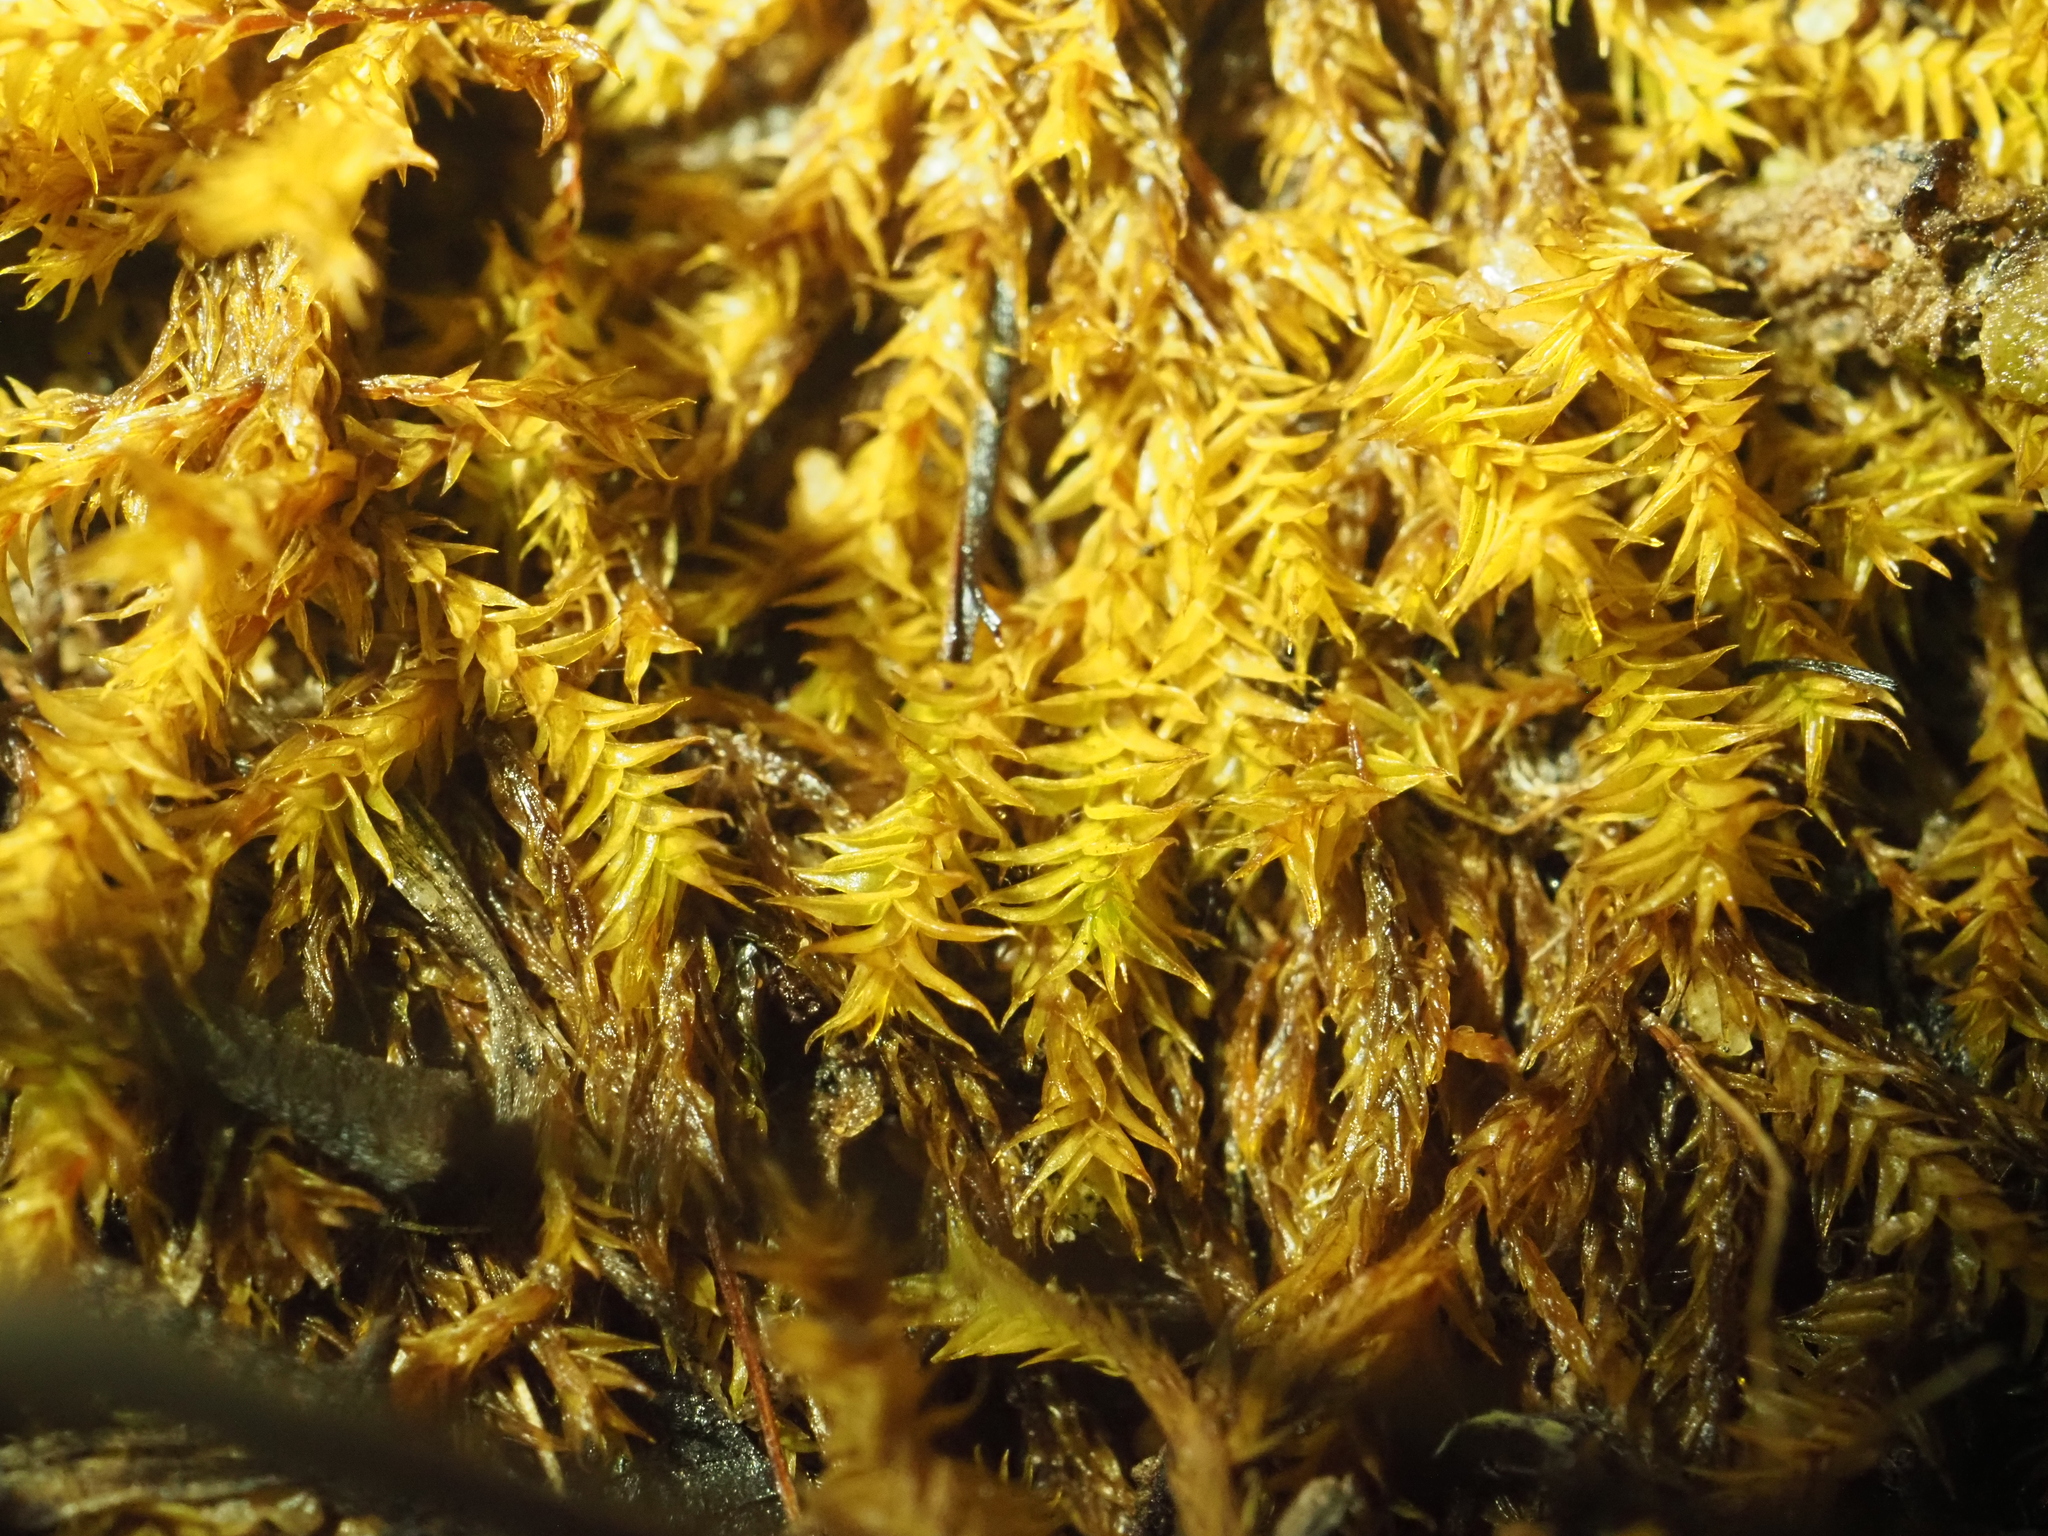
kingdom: Plantae
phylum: Bryophyta
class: Bryopsida
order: Pottiales
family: Pottiaceae
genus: Triquetrella
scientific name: Triquetrella papillata
